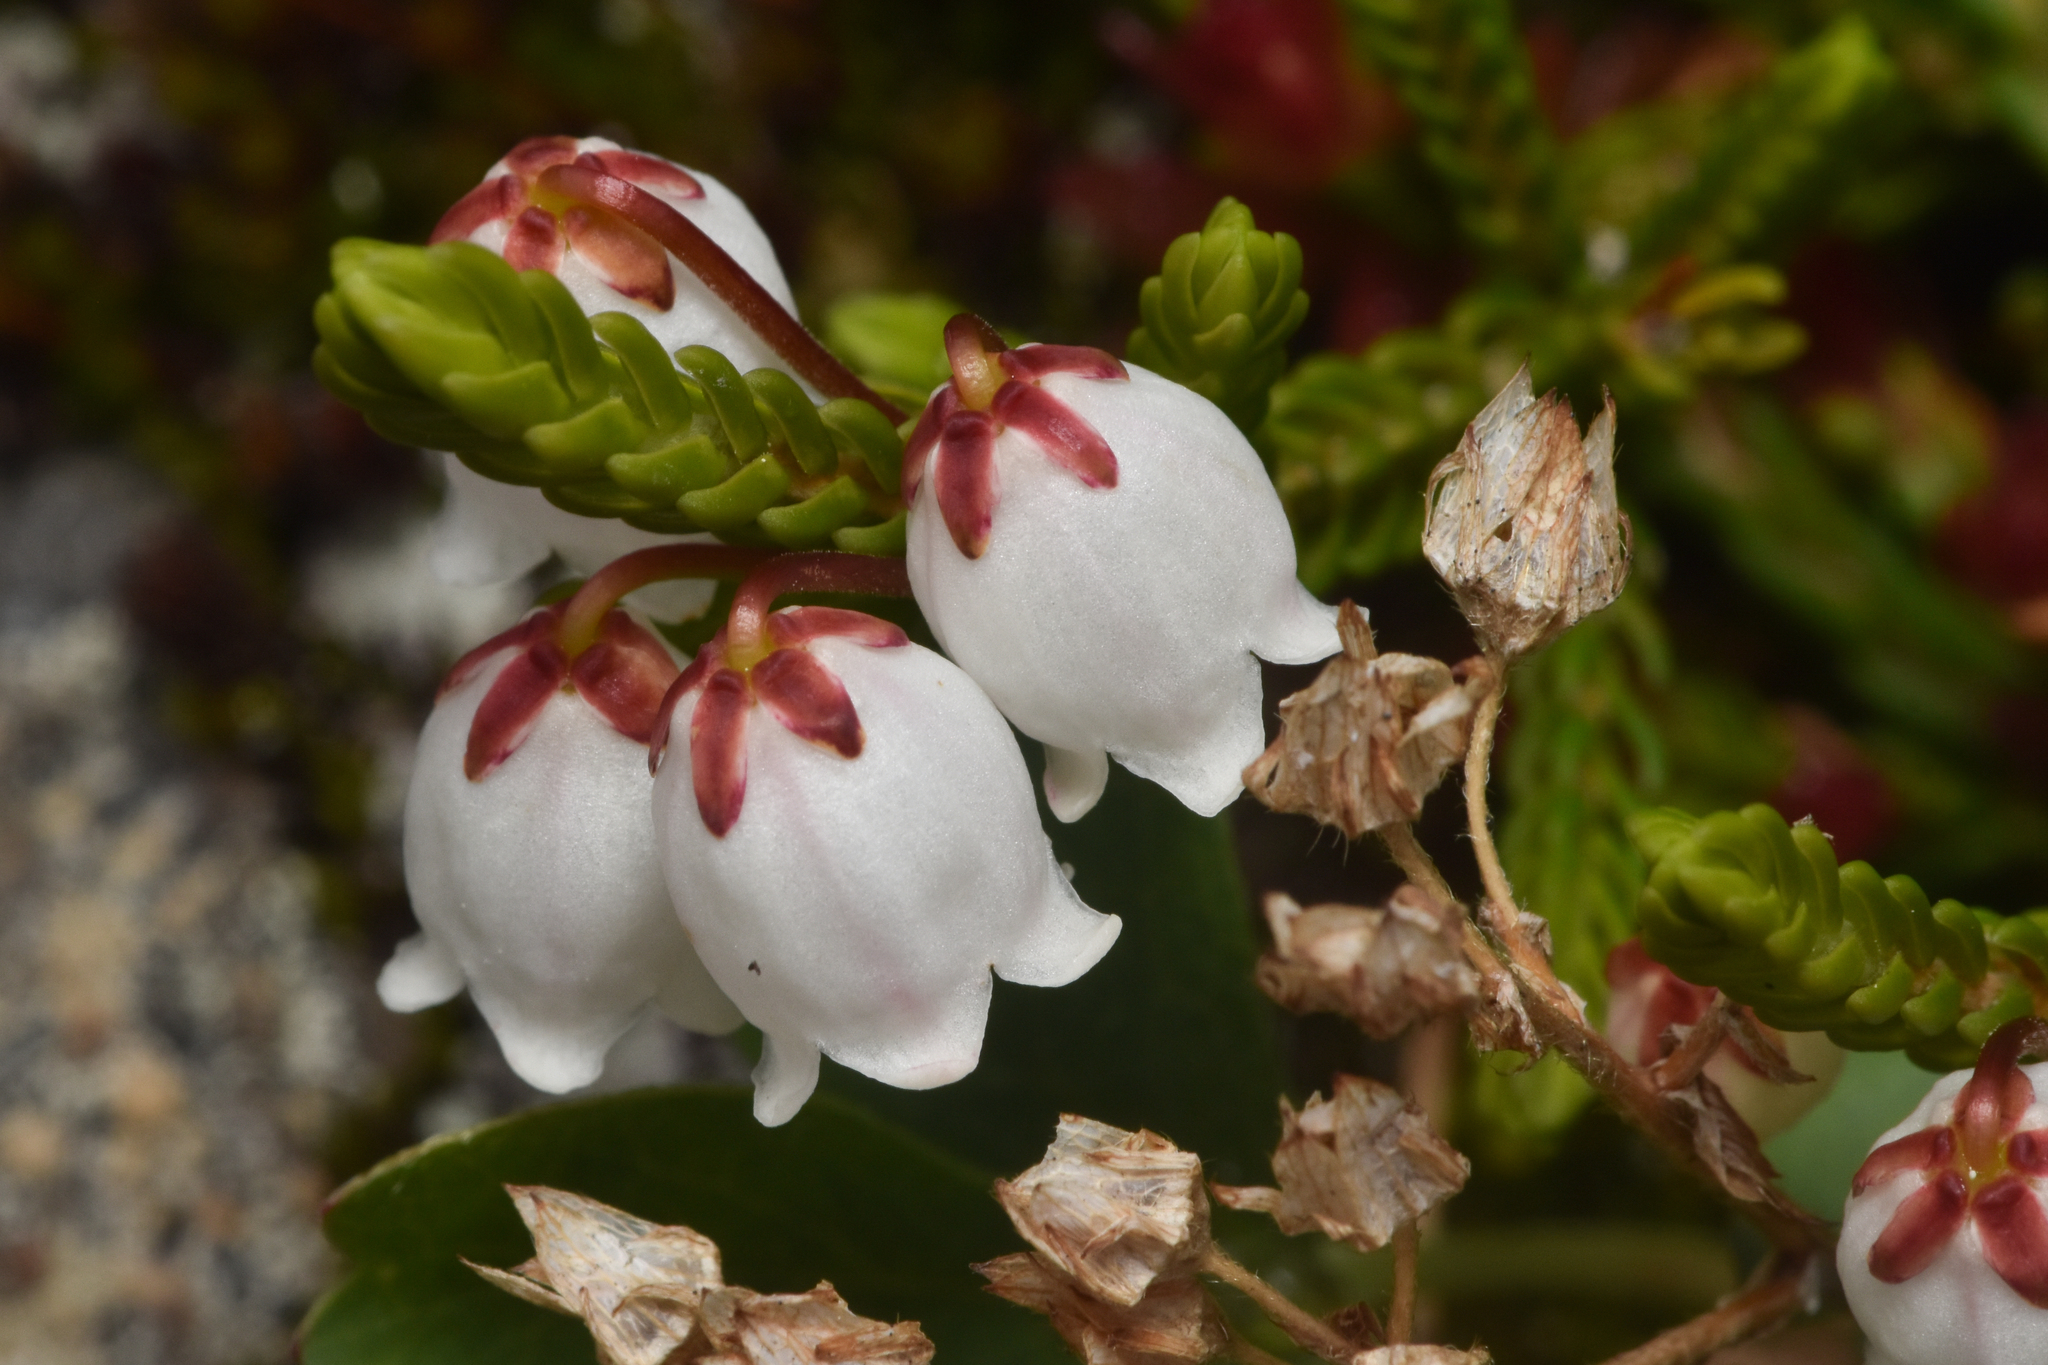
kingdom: Plantae
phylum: Tracheophyta
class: Magnoliopsida
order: Ericales
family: Ericaceae
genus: Cassiope
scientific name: Cassiope mertensiana
